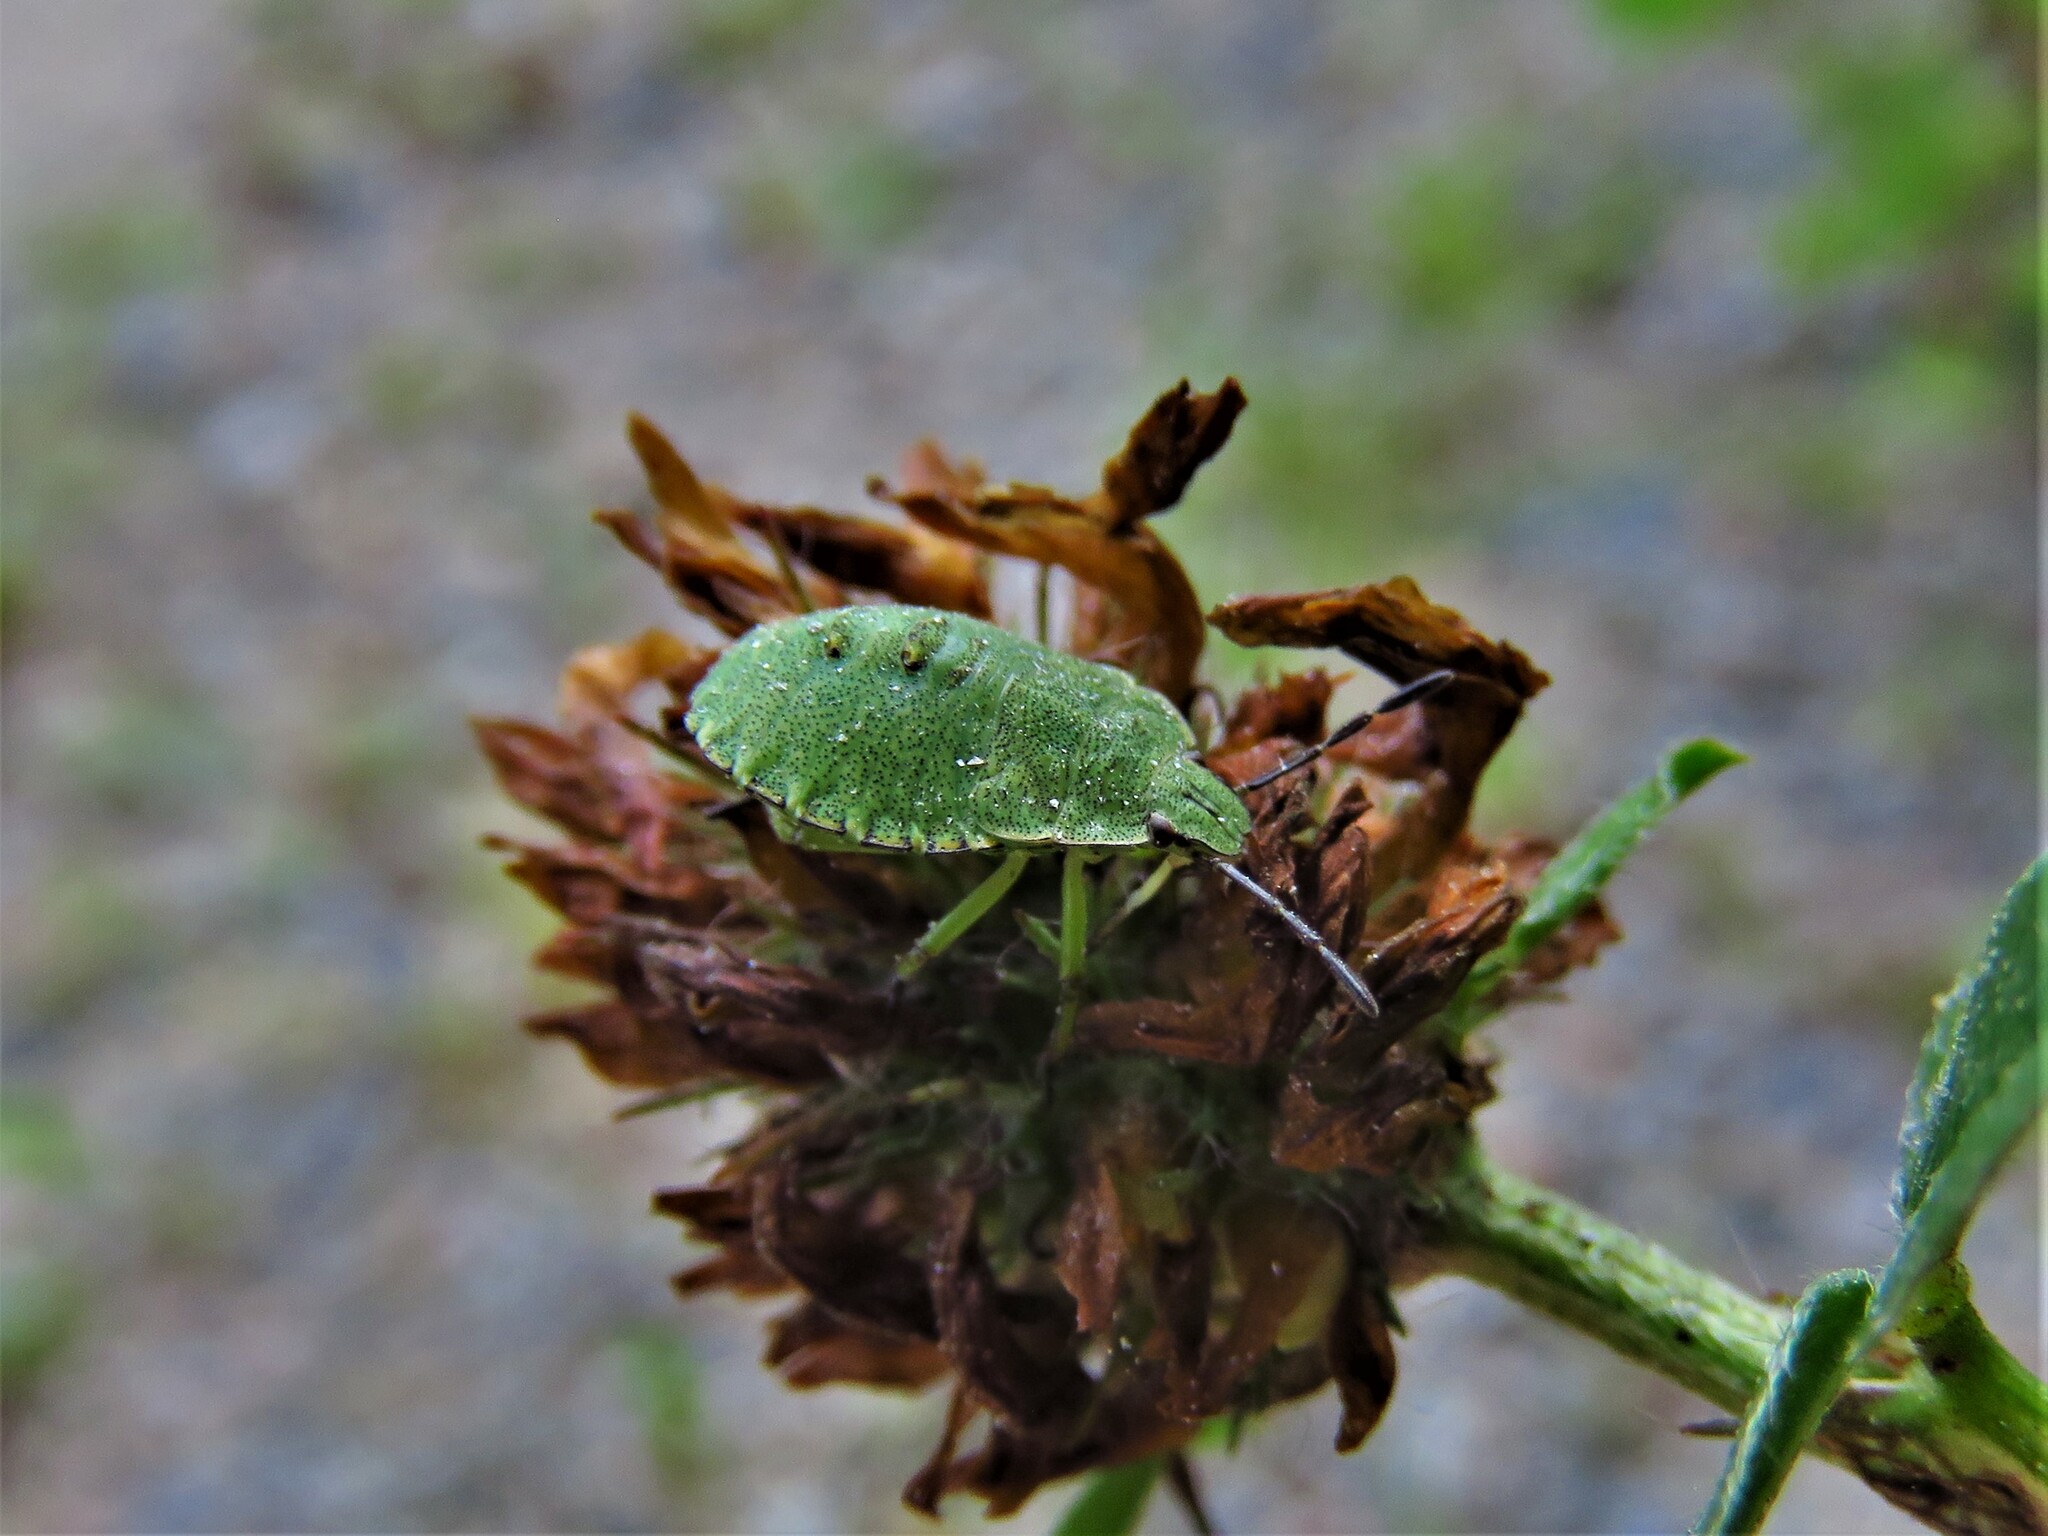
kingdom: Animalia
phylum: Arthropoda
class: Insecta
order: Hemiptera
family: Pentatomidae
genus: Palomena
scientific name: Palomena prasina
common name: Green shieldbug
